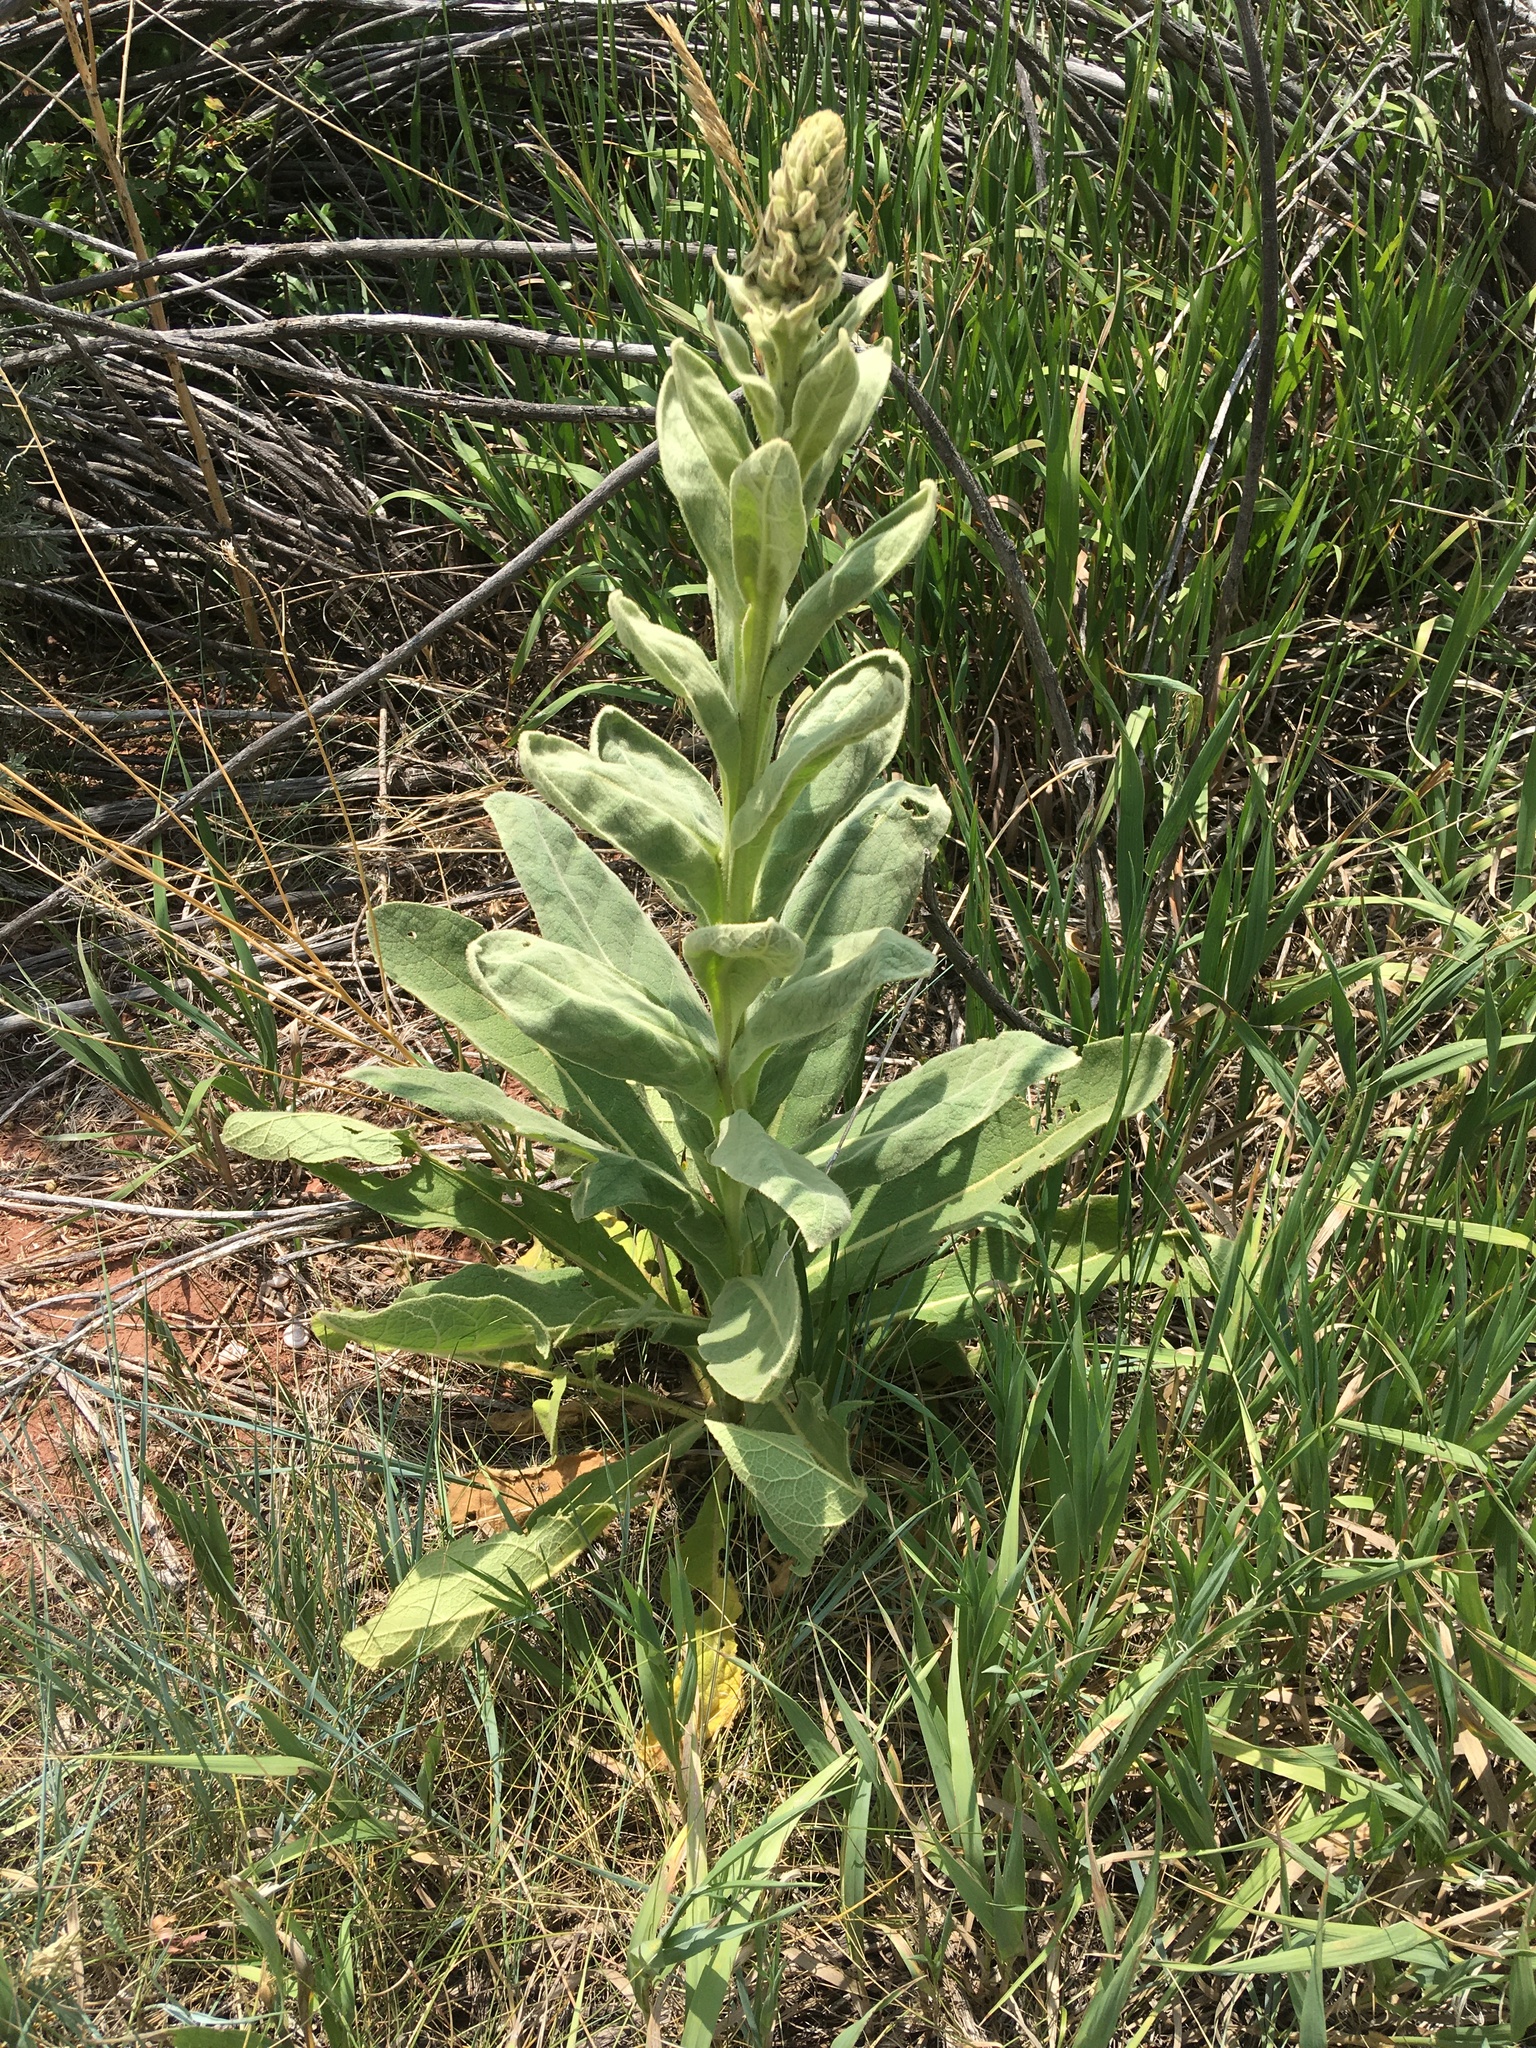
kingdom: Plantae
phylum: Tracheophyta
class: Magnoliopsida
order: Lamiales
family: Scrophulariaceae
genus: Verbascum
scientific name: Verbascum thapsus
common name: Common mullein
